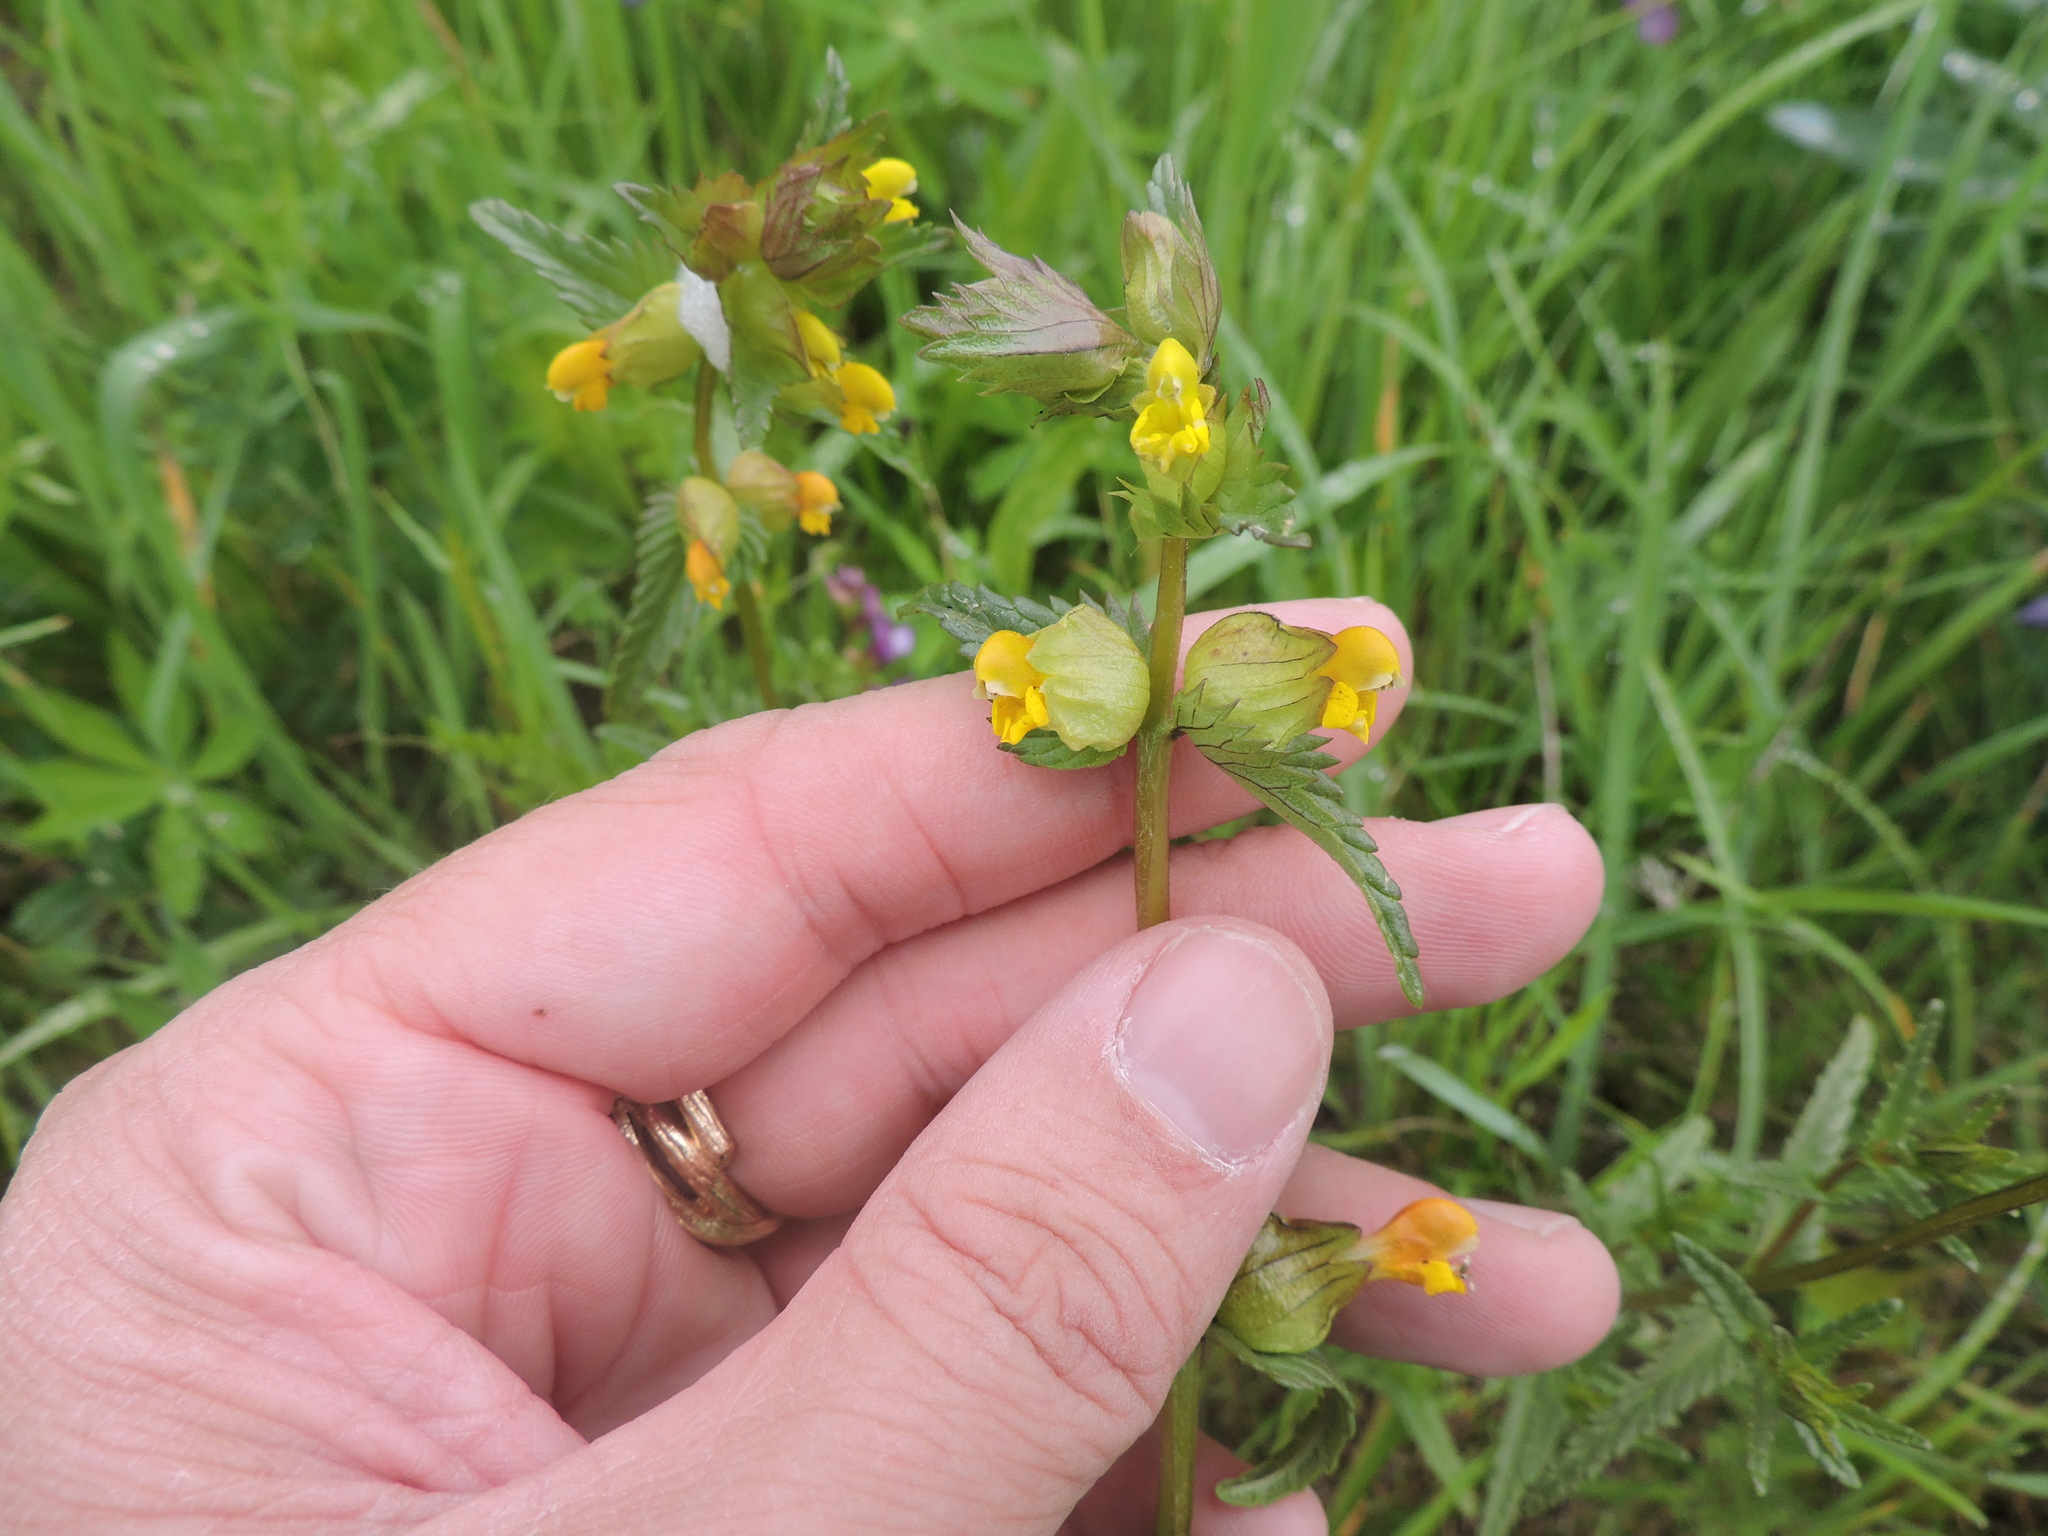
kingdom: Plantae
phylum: Tracheophyta
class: Magnoliopsida
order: Lamiales
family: Orobanchaceae
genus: Rhinanthus
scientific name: Rhinanthus groenlandicus
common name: Little yellow rattle
